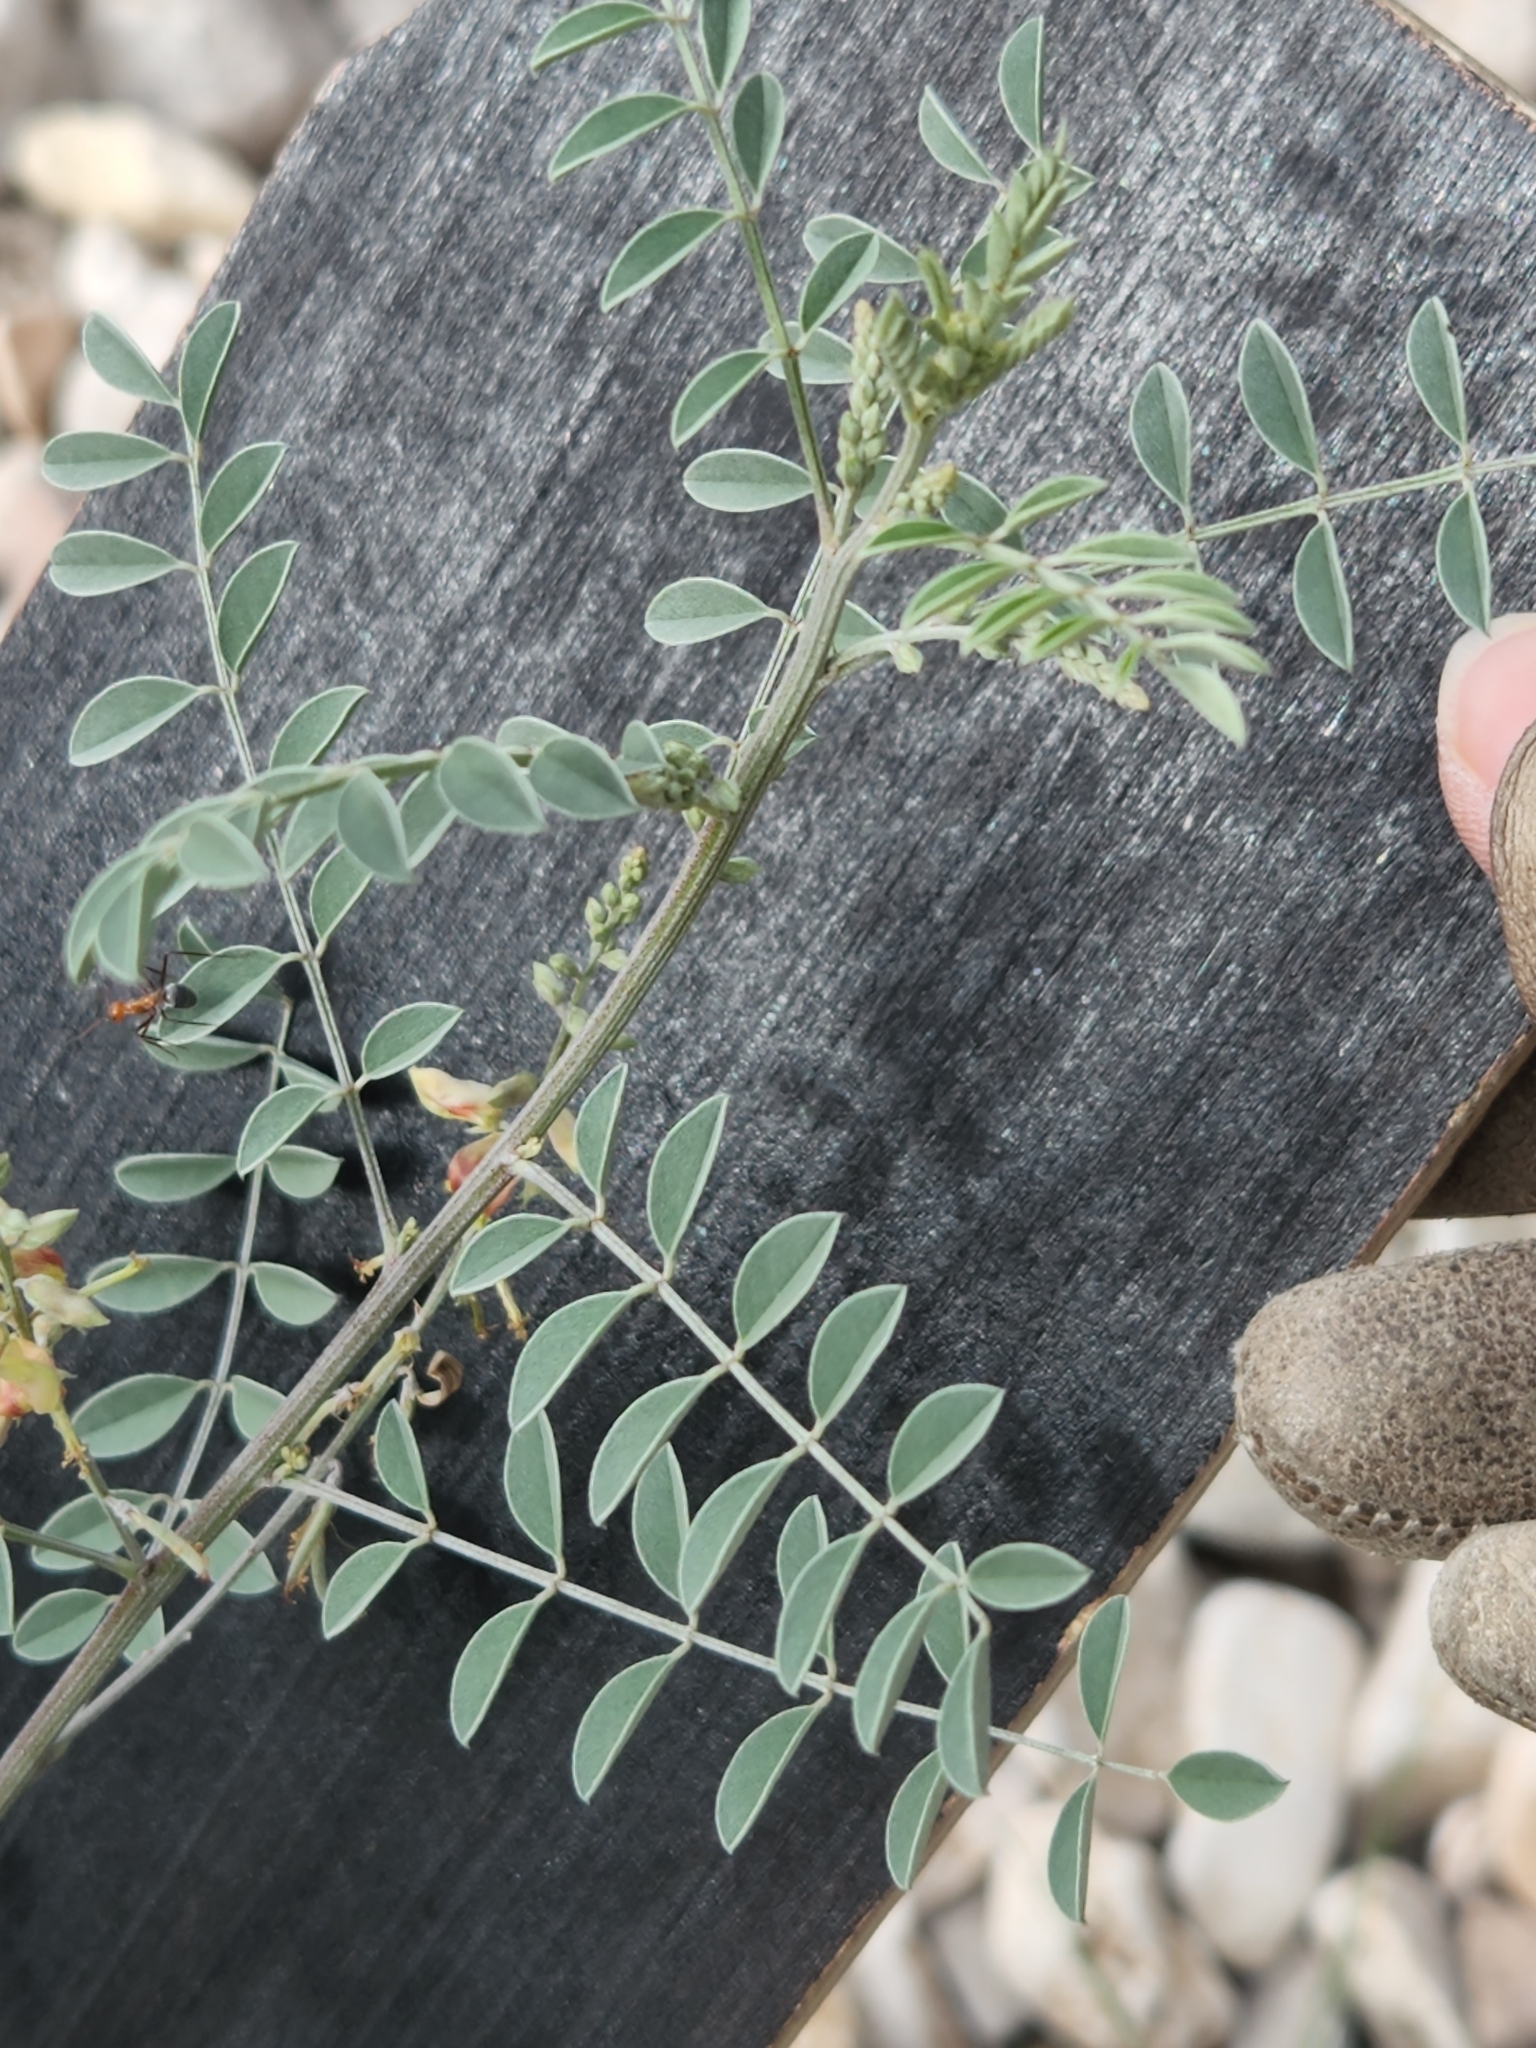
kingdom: Plantae
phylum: Tracheophyta
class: Magnoliopsida
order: Fabales
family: Fabaceae
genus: Indigofera
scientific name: Indigofera lindheimeriana
